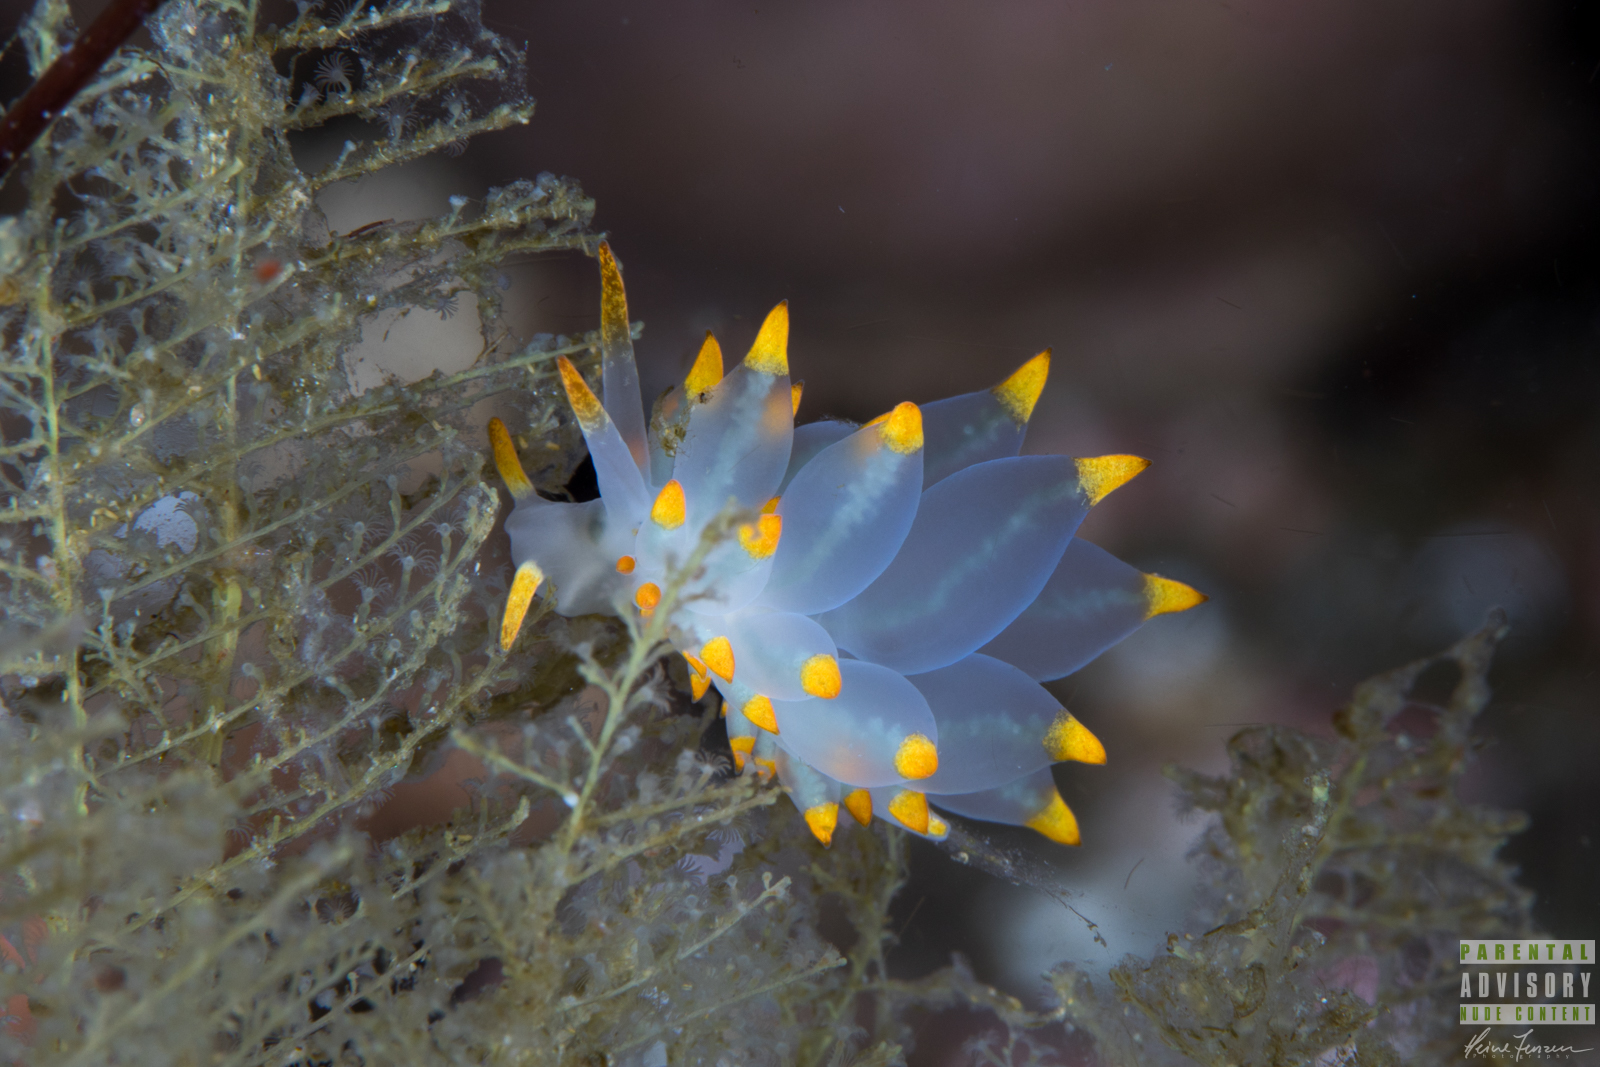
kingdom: Animalia
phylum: Mollusca
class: Gastropoda
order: Nudibranchia
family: Eubranchidae
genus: Amphorina
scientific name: Amphorina farrani
